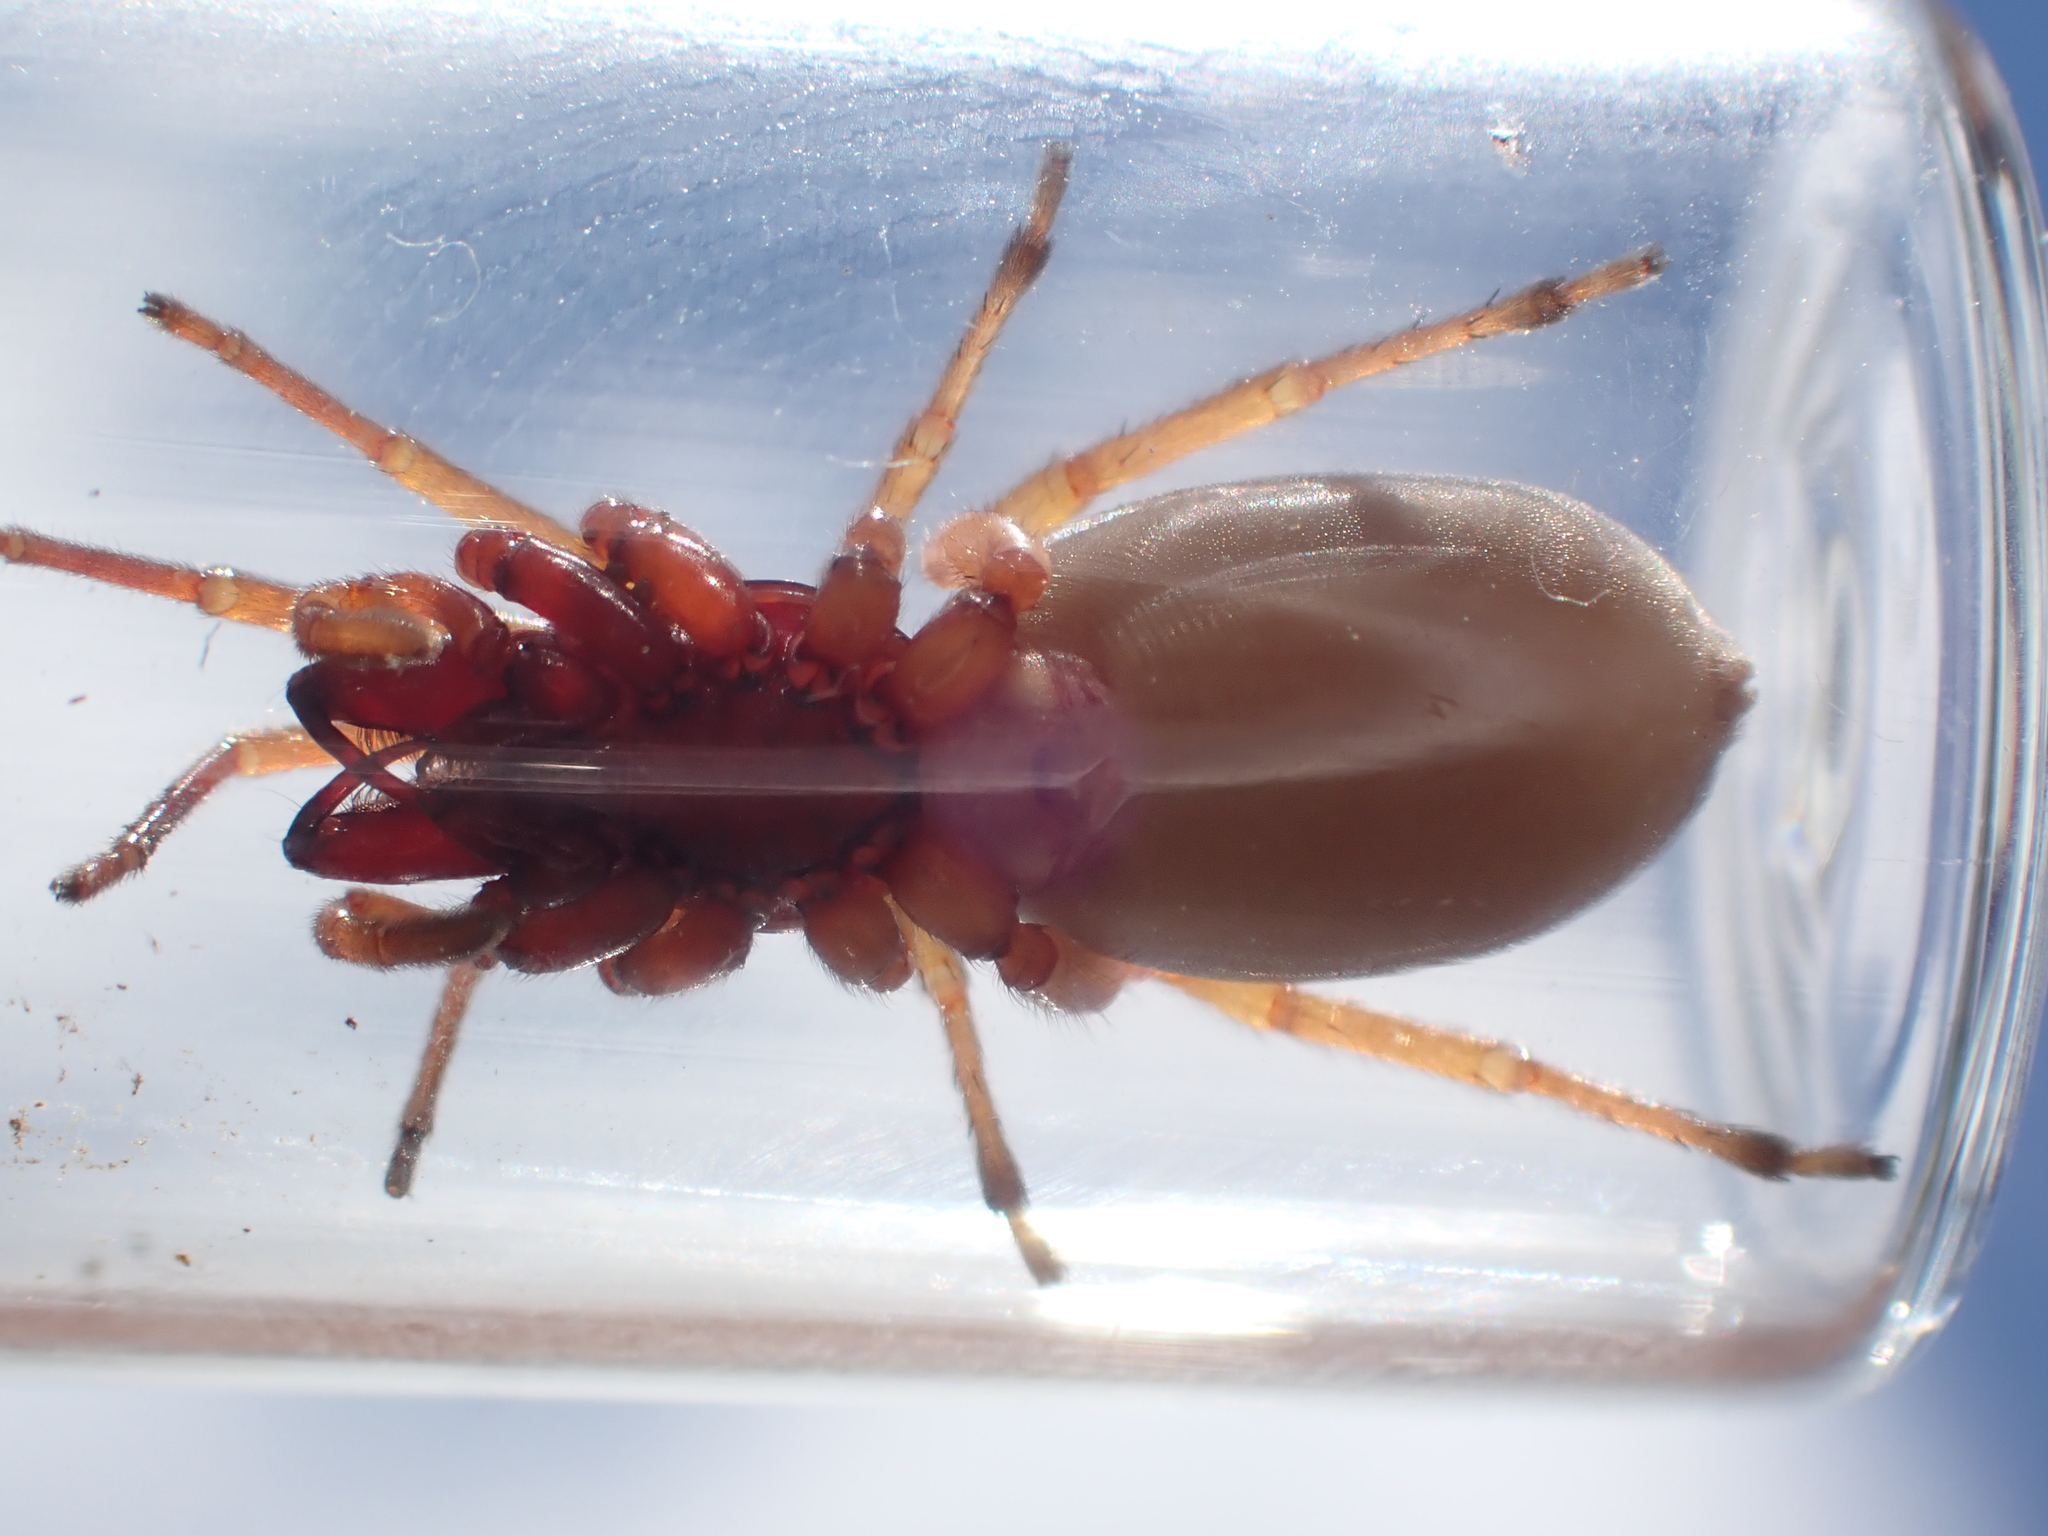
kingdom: Animalia
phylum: Arthropoda
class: Arachnida
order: Araneae
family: Dysderidae
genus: Dysdera
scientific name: Dysdera crocata
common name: Woodlouse spider
